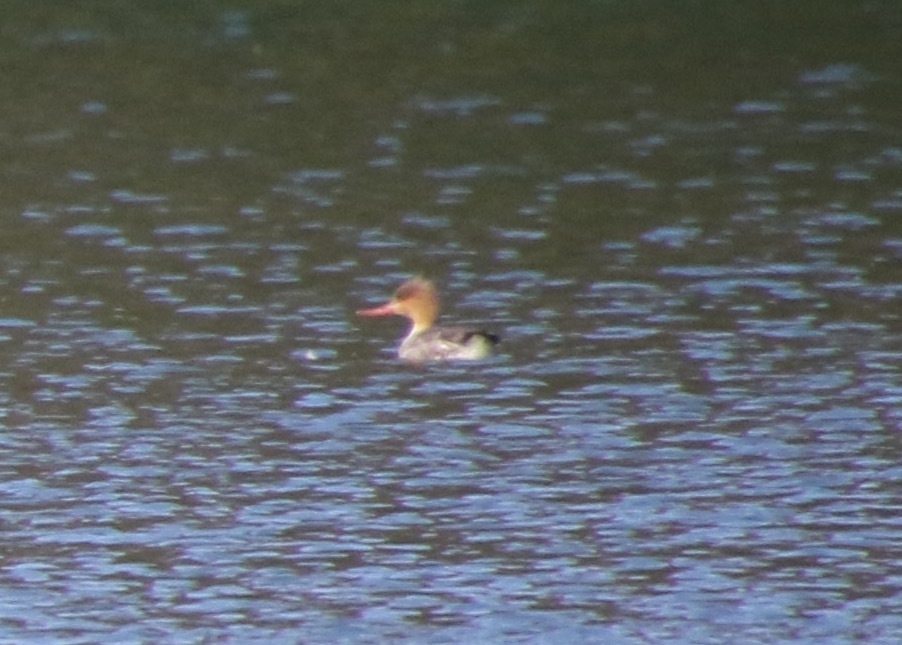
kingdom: Animalia
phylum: Chordata
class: Aves
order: Anseriformes
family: Anatidae
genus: Mergus
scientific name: Mergus serrator
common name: Red-breasted merganser
